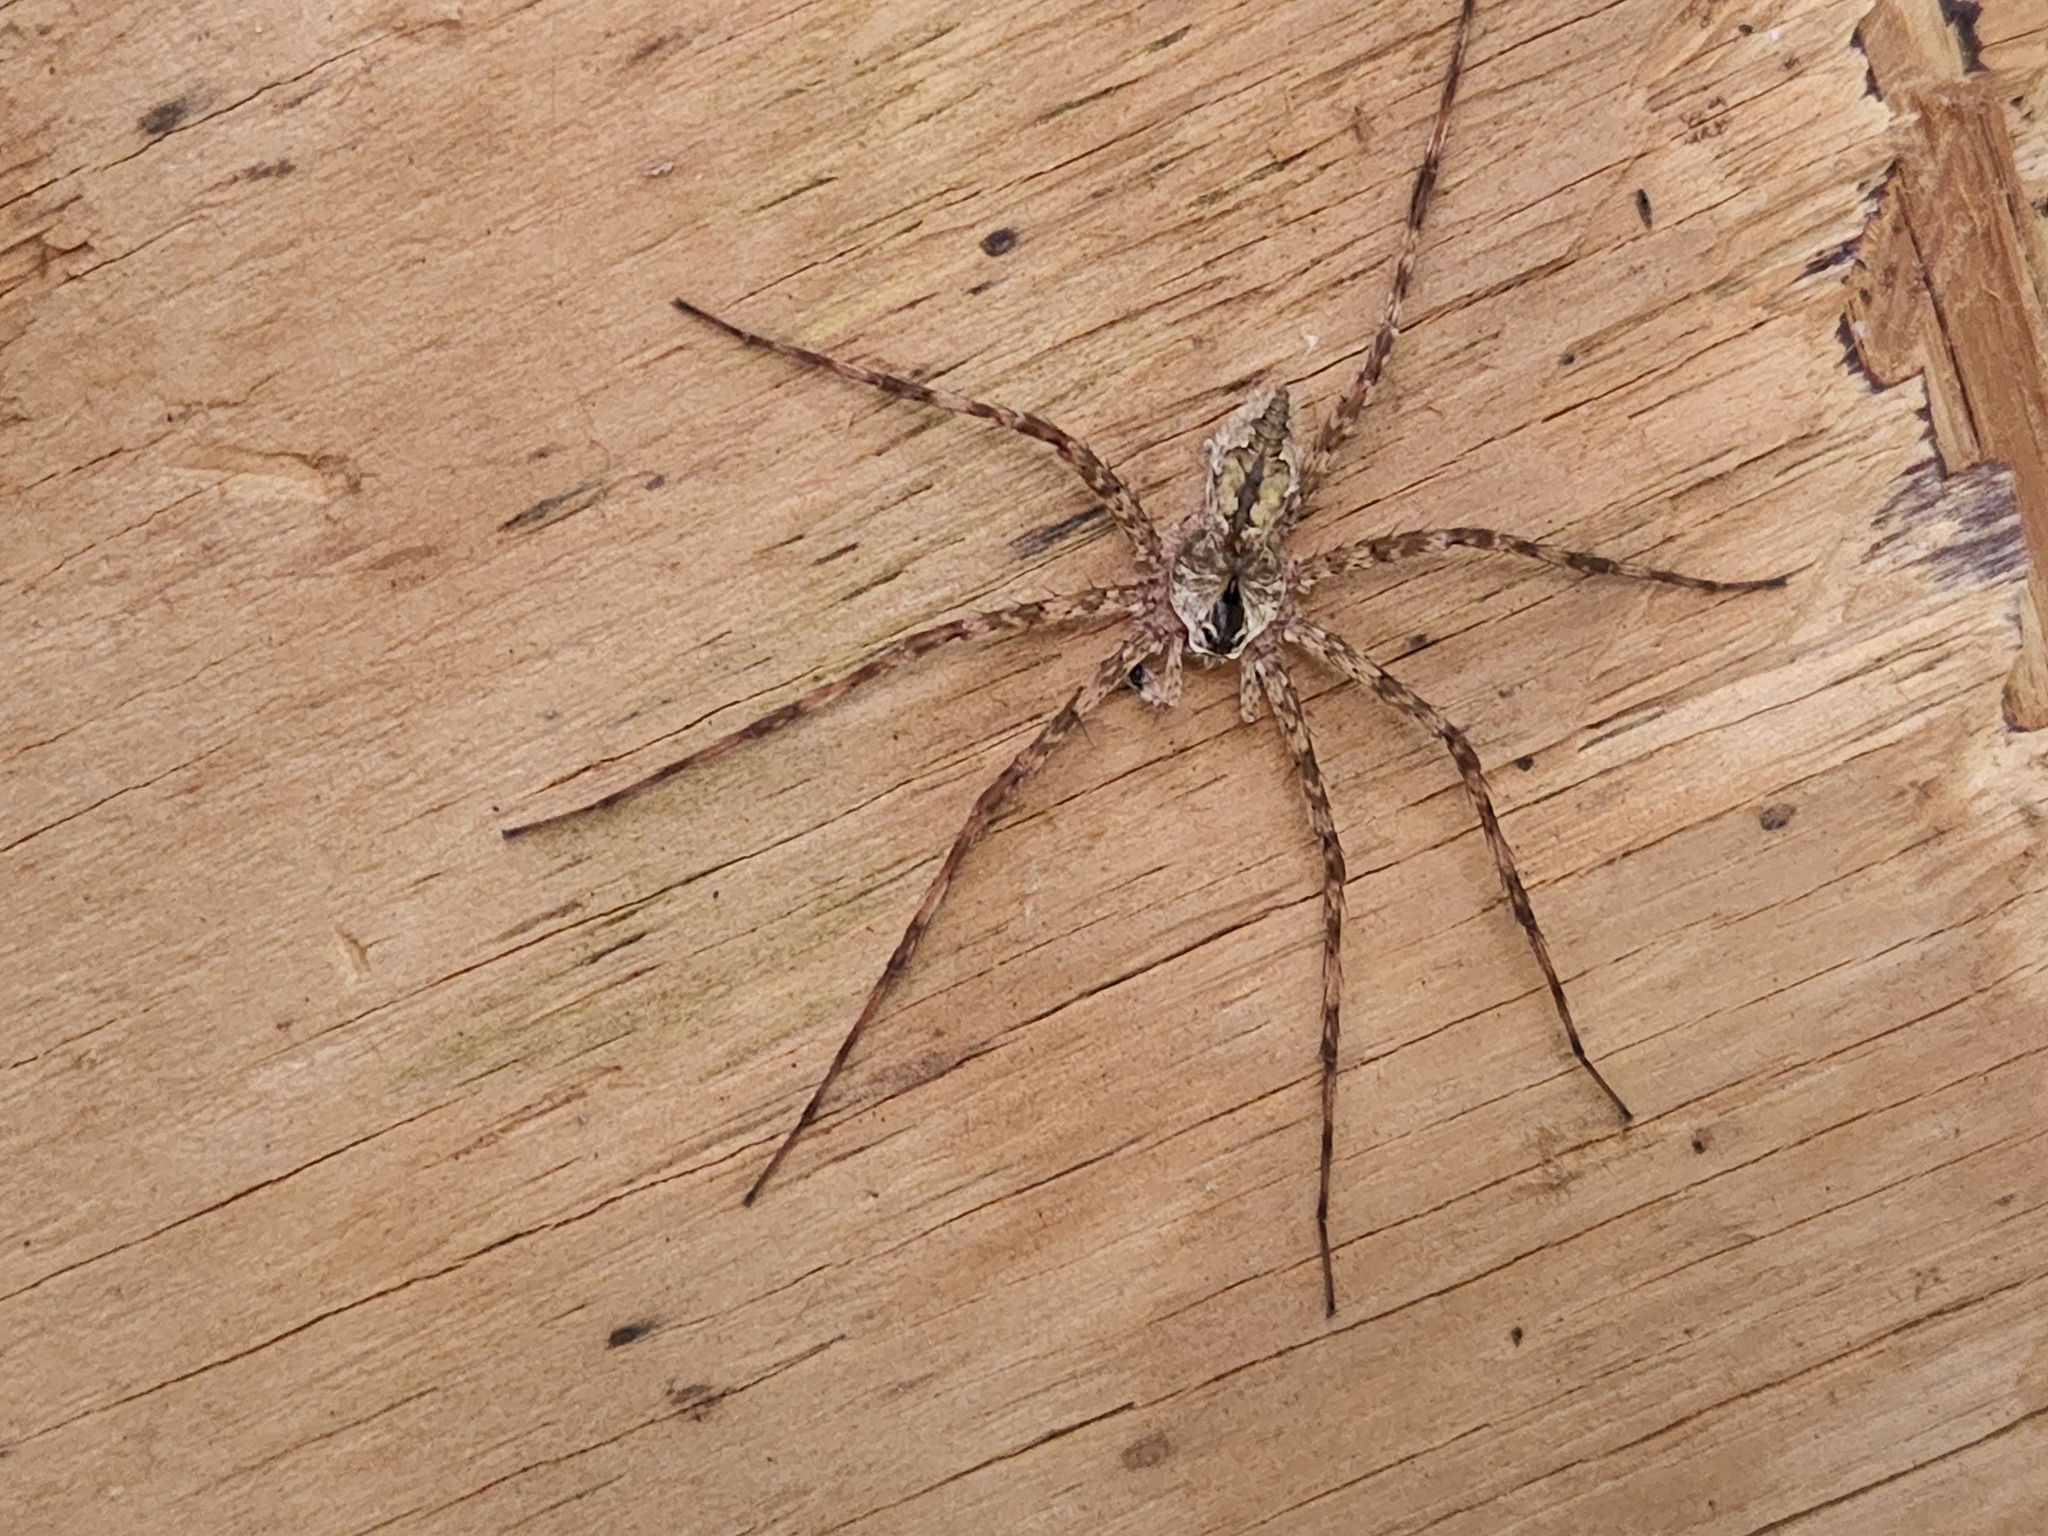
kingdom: Animalia
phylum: Arthropoda
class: Arachnida
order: Araneae
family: Pisauridae
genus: Dolomedes
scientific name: Dolomedes albineus
